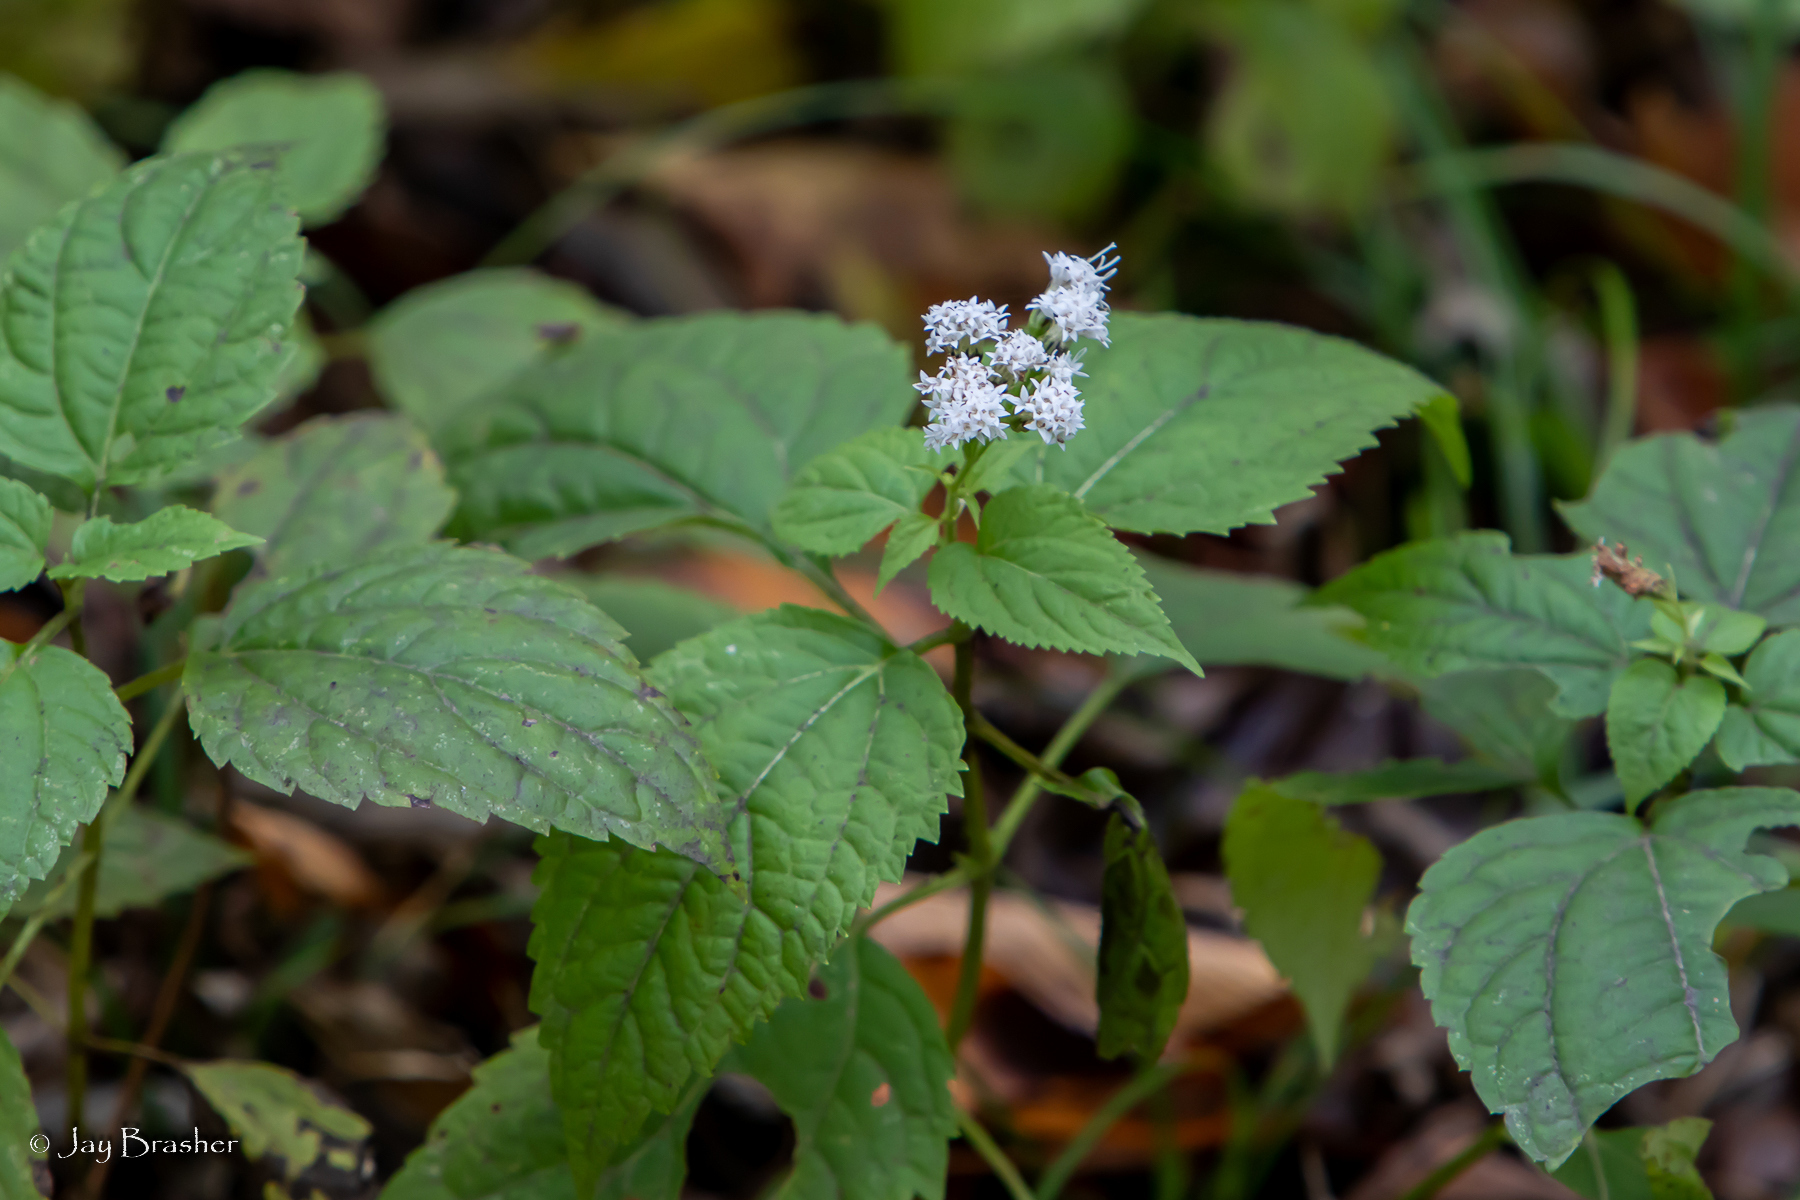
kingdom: Plantae
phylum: Tracheophyta
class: Magnoliopsida
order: Asterales
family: Asteraceae
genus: Ageratina
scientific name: Ageratina altissima
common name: White snakeroot
